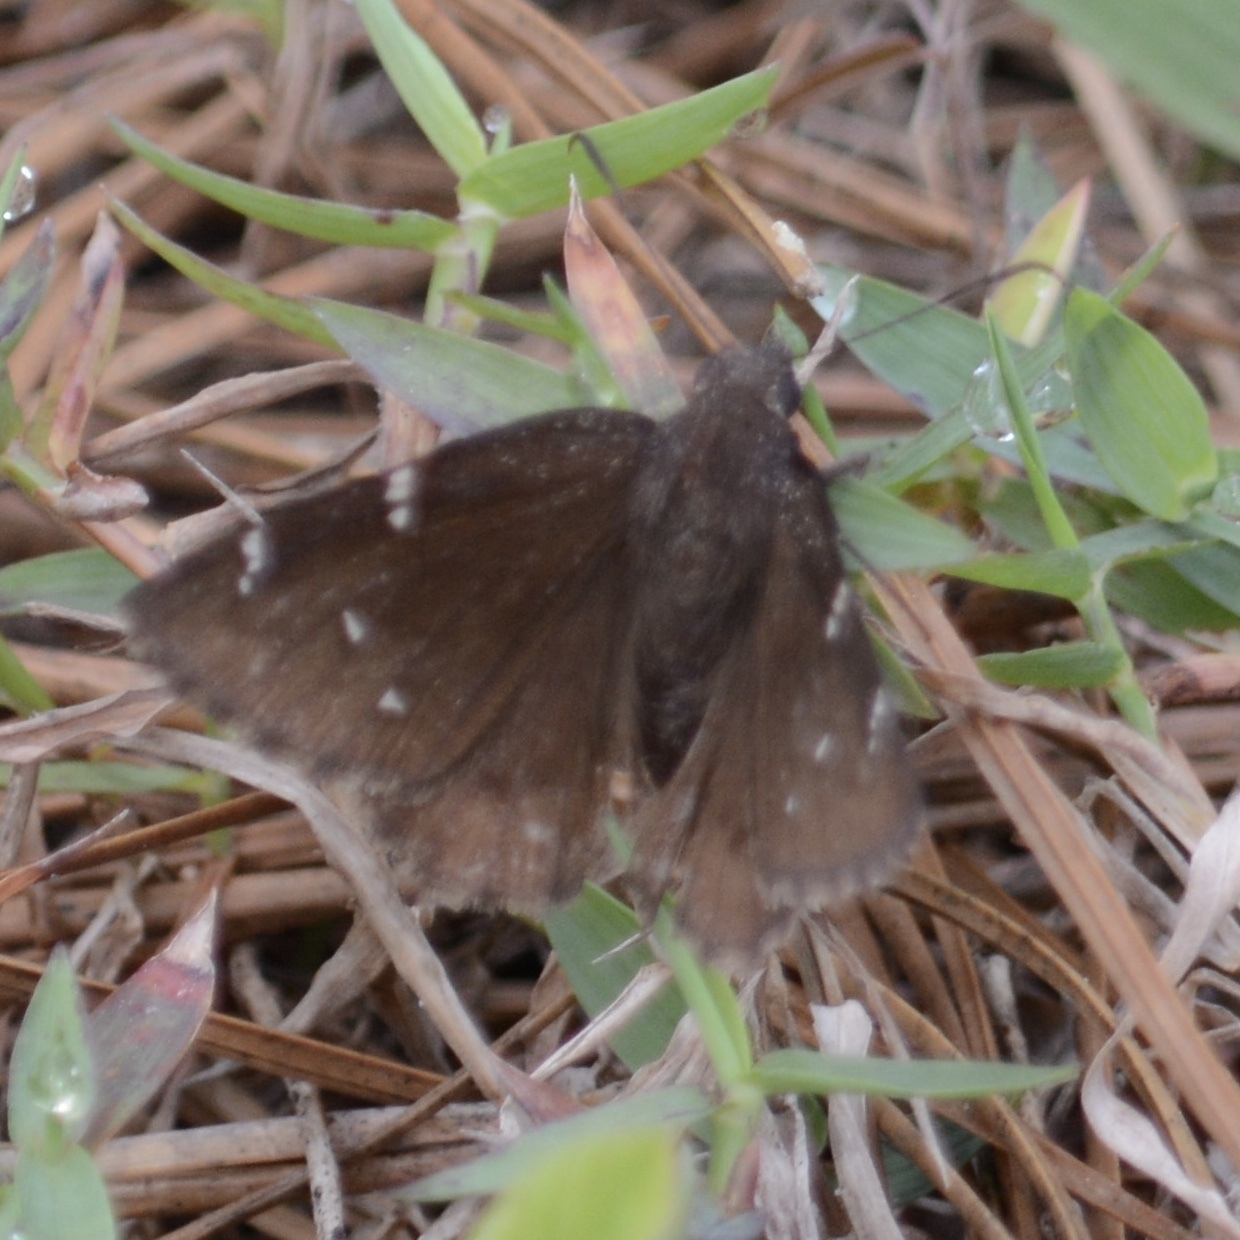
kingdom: Animalia
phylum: Arthropoda
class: Insecta
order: Lepidoptera
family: Hesperiidae
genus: Thorybes
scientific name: Thorybes pylades
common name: Northern cloudywing
